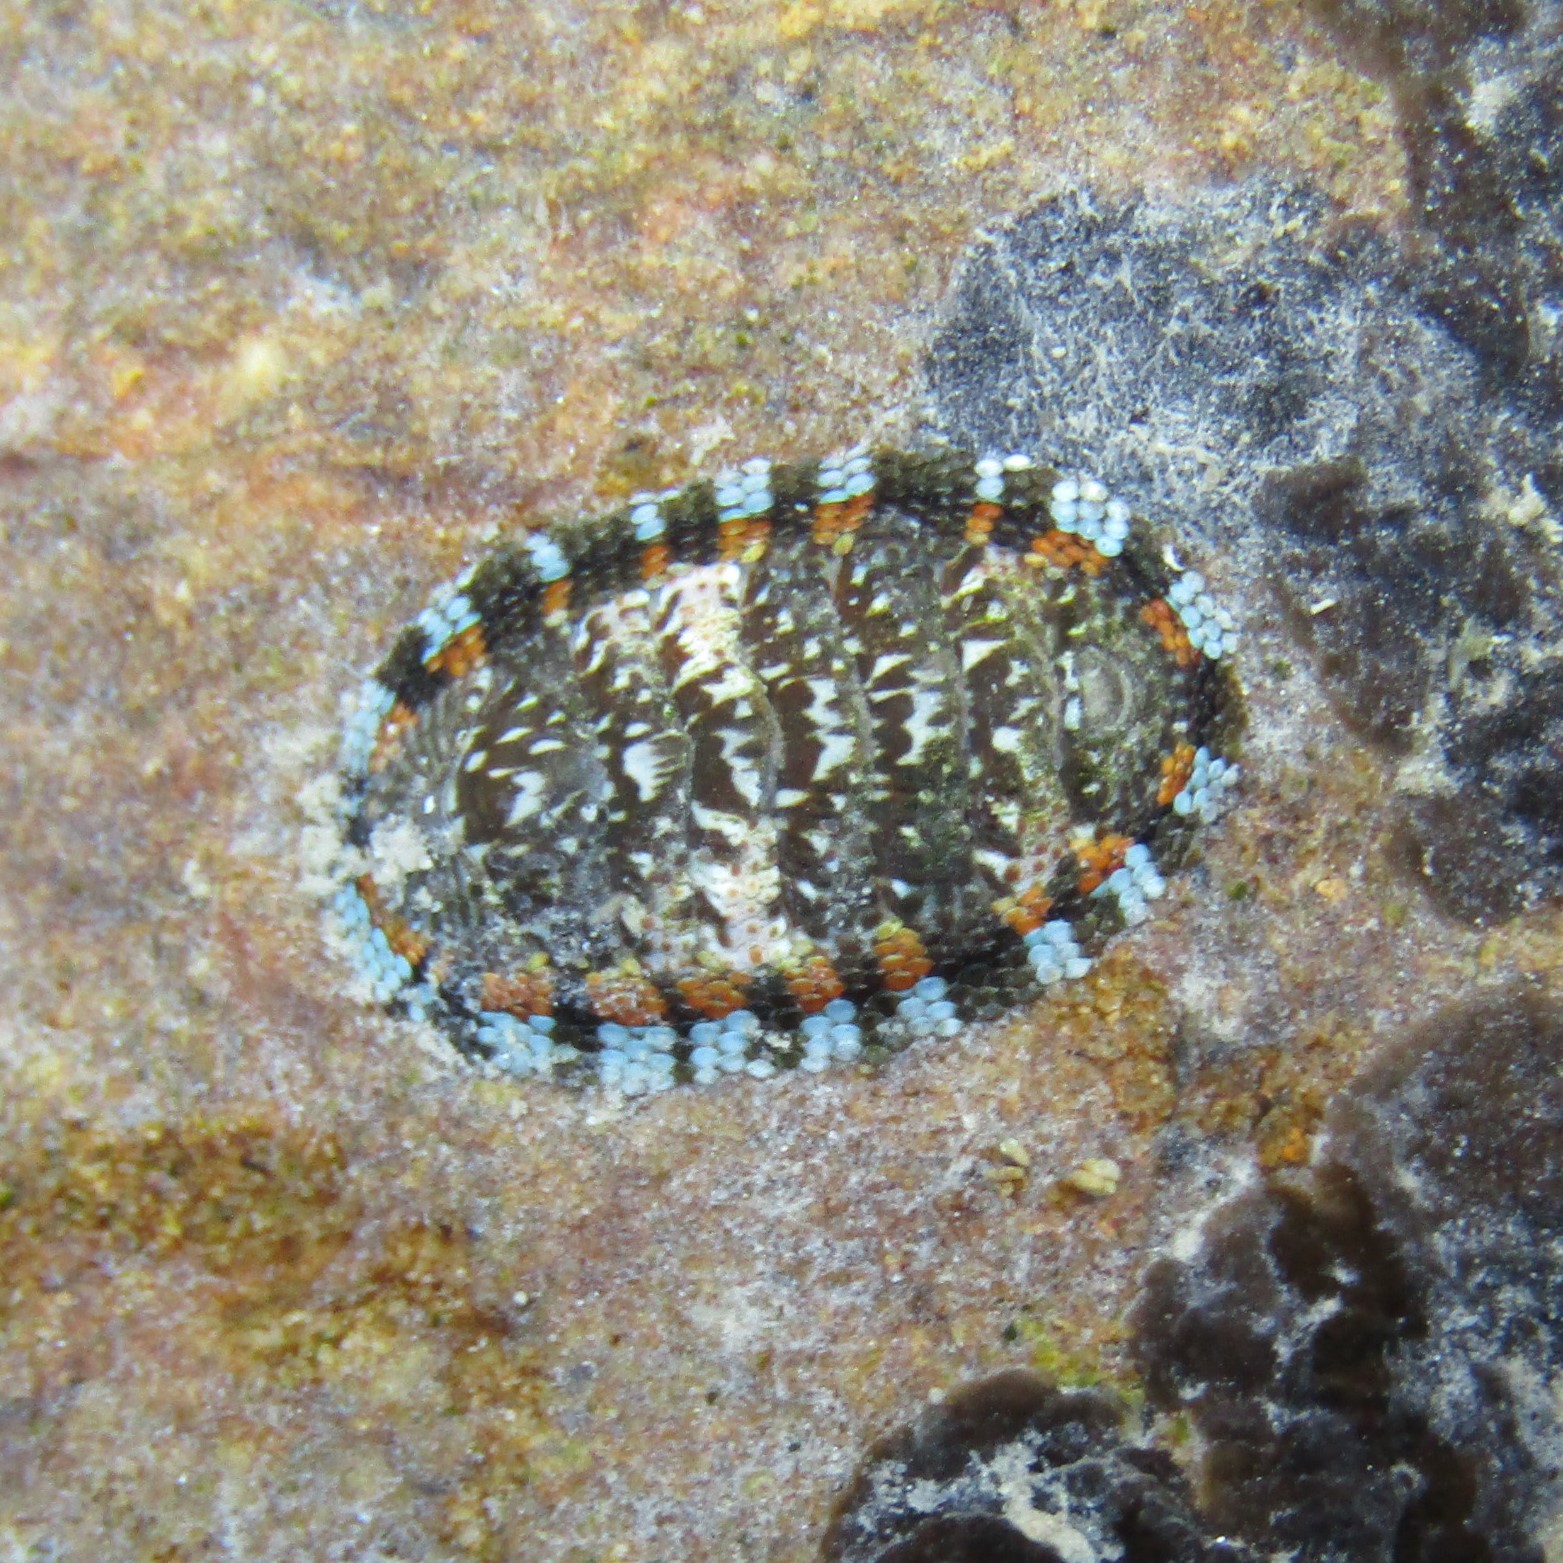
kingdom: Animalia
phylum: Mollusca
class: Polyplacophora
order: Chitonida
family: Chitonidae
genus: Sypharochiton
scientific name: Sypharochiton sinclairi
